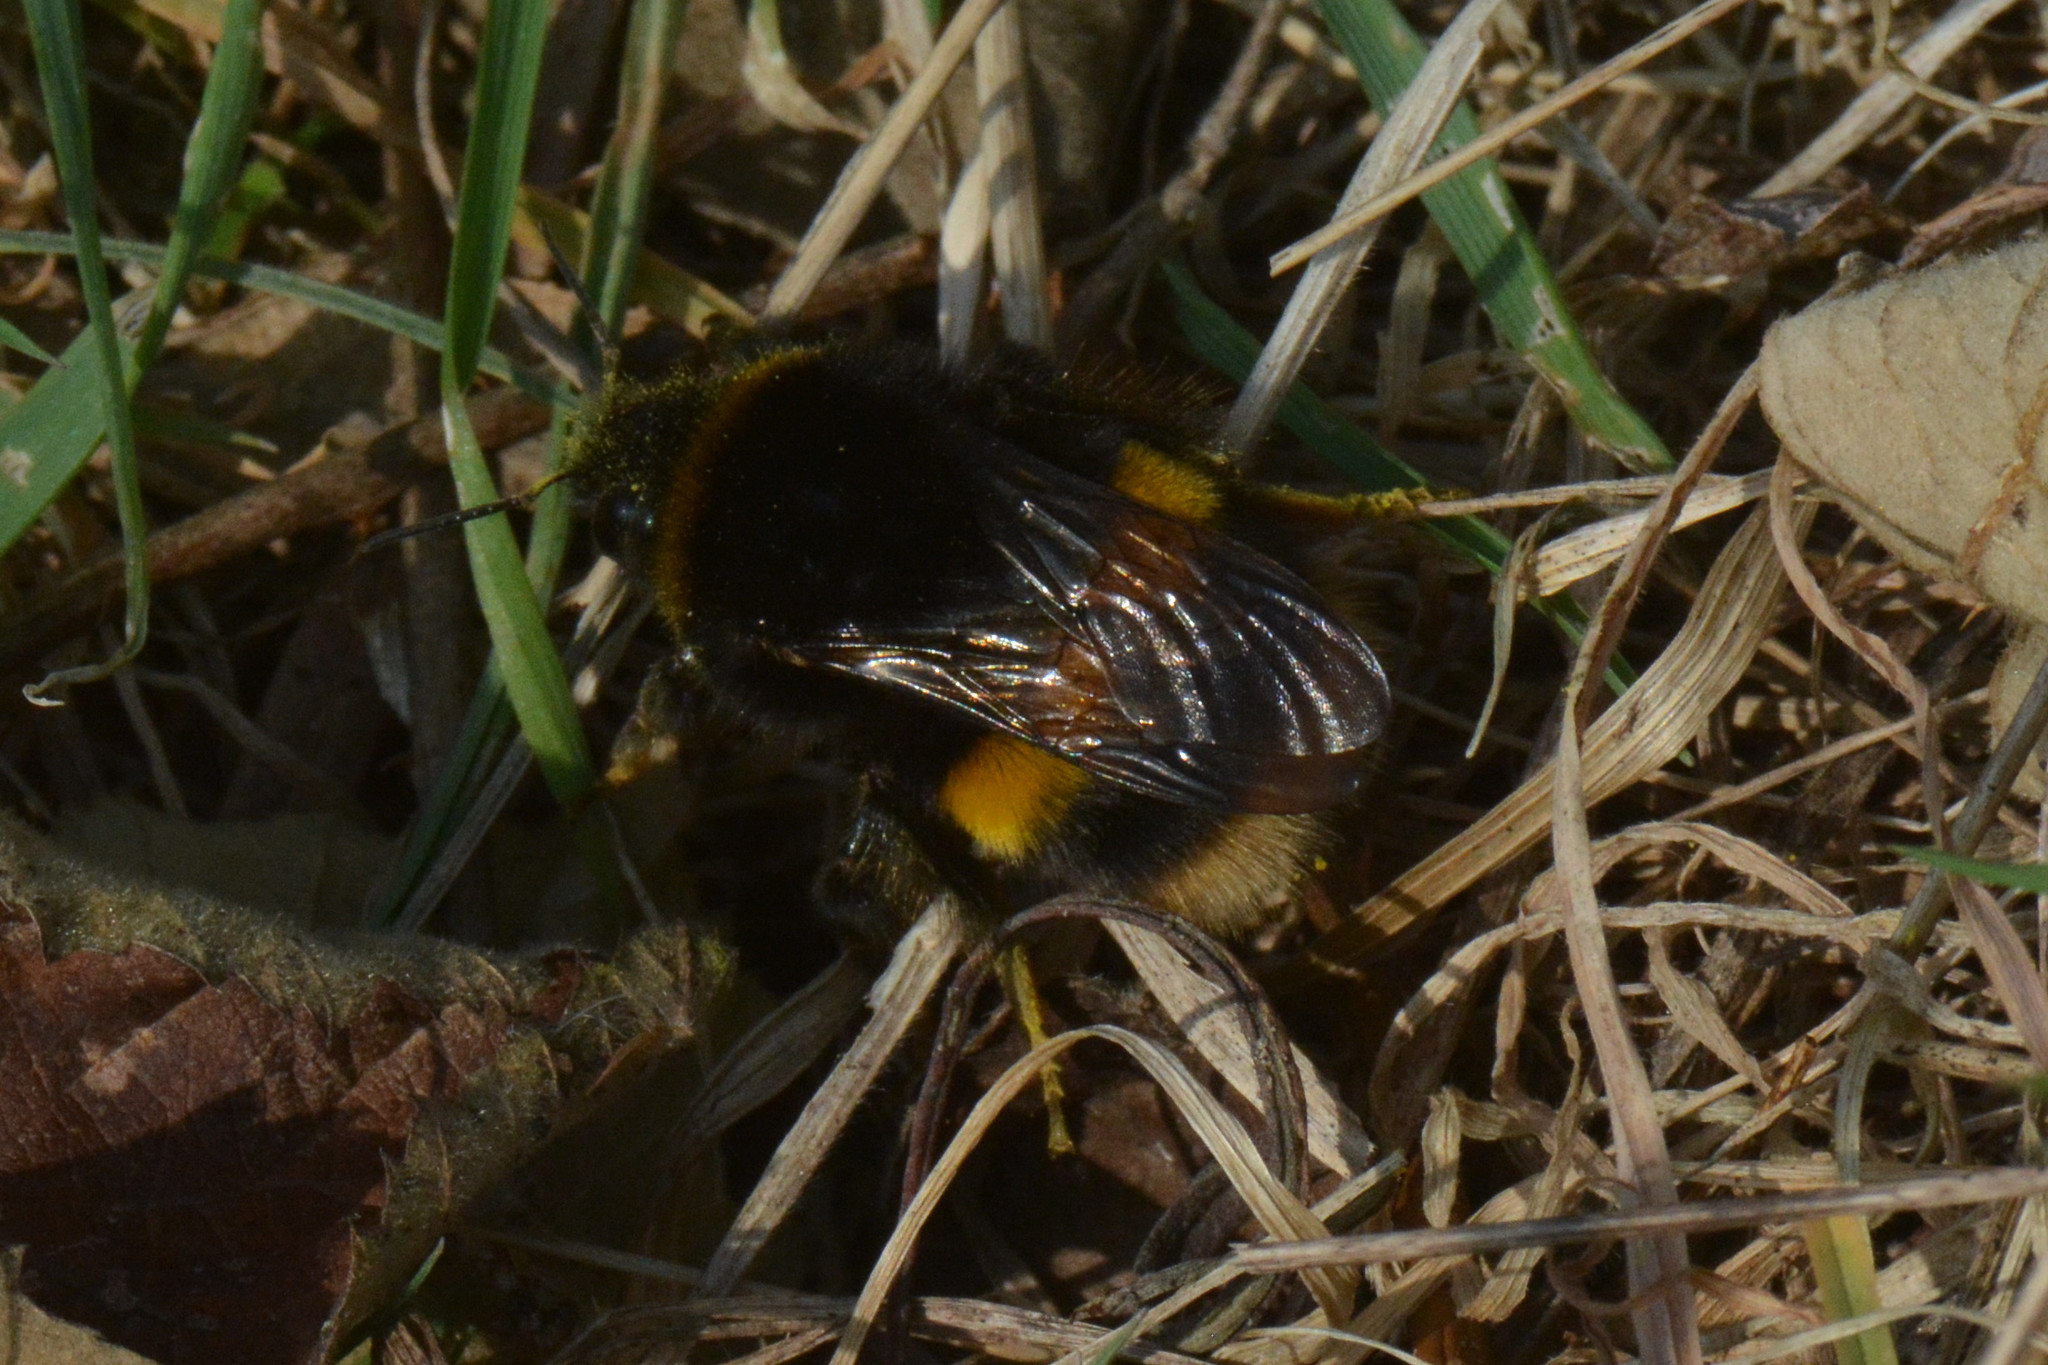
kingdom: Animalia
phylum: Arthropoda
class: Insecta
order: Hymenoptera
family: Apidae
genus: Bombus
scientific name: Bombus terrestris
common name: Buff-tailed bumblebee
